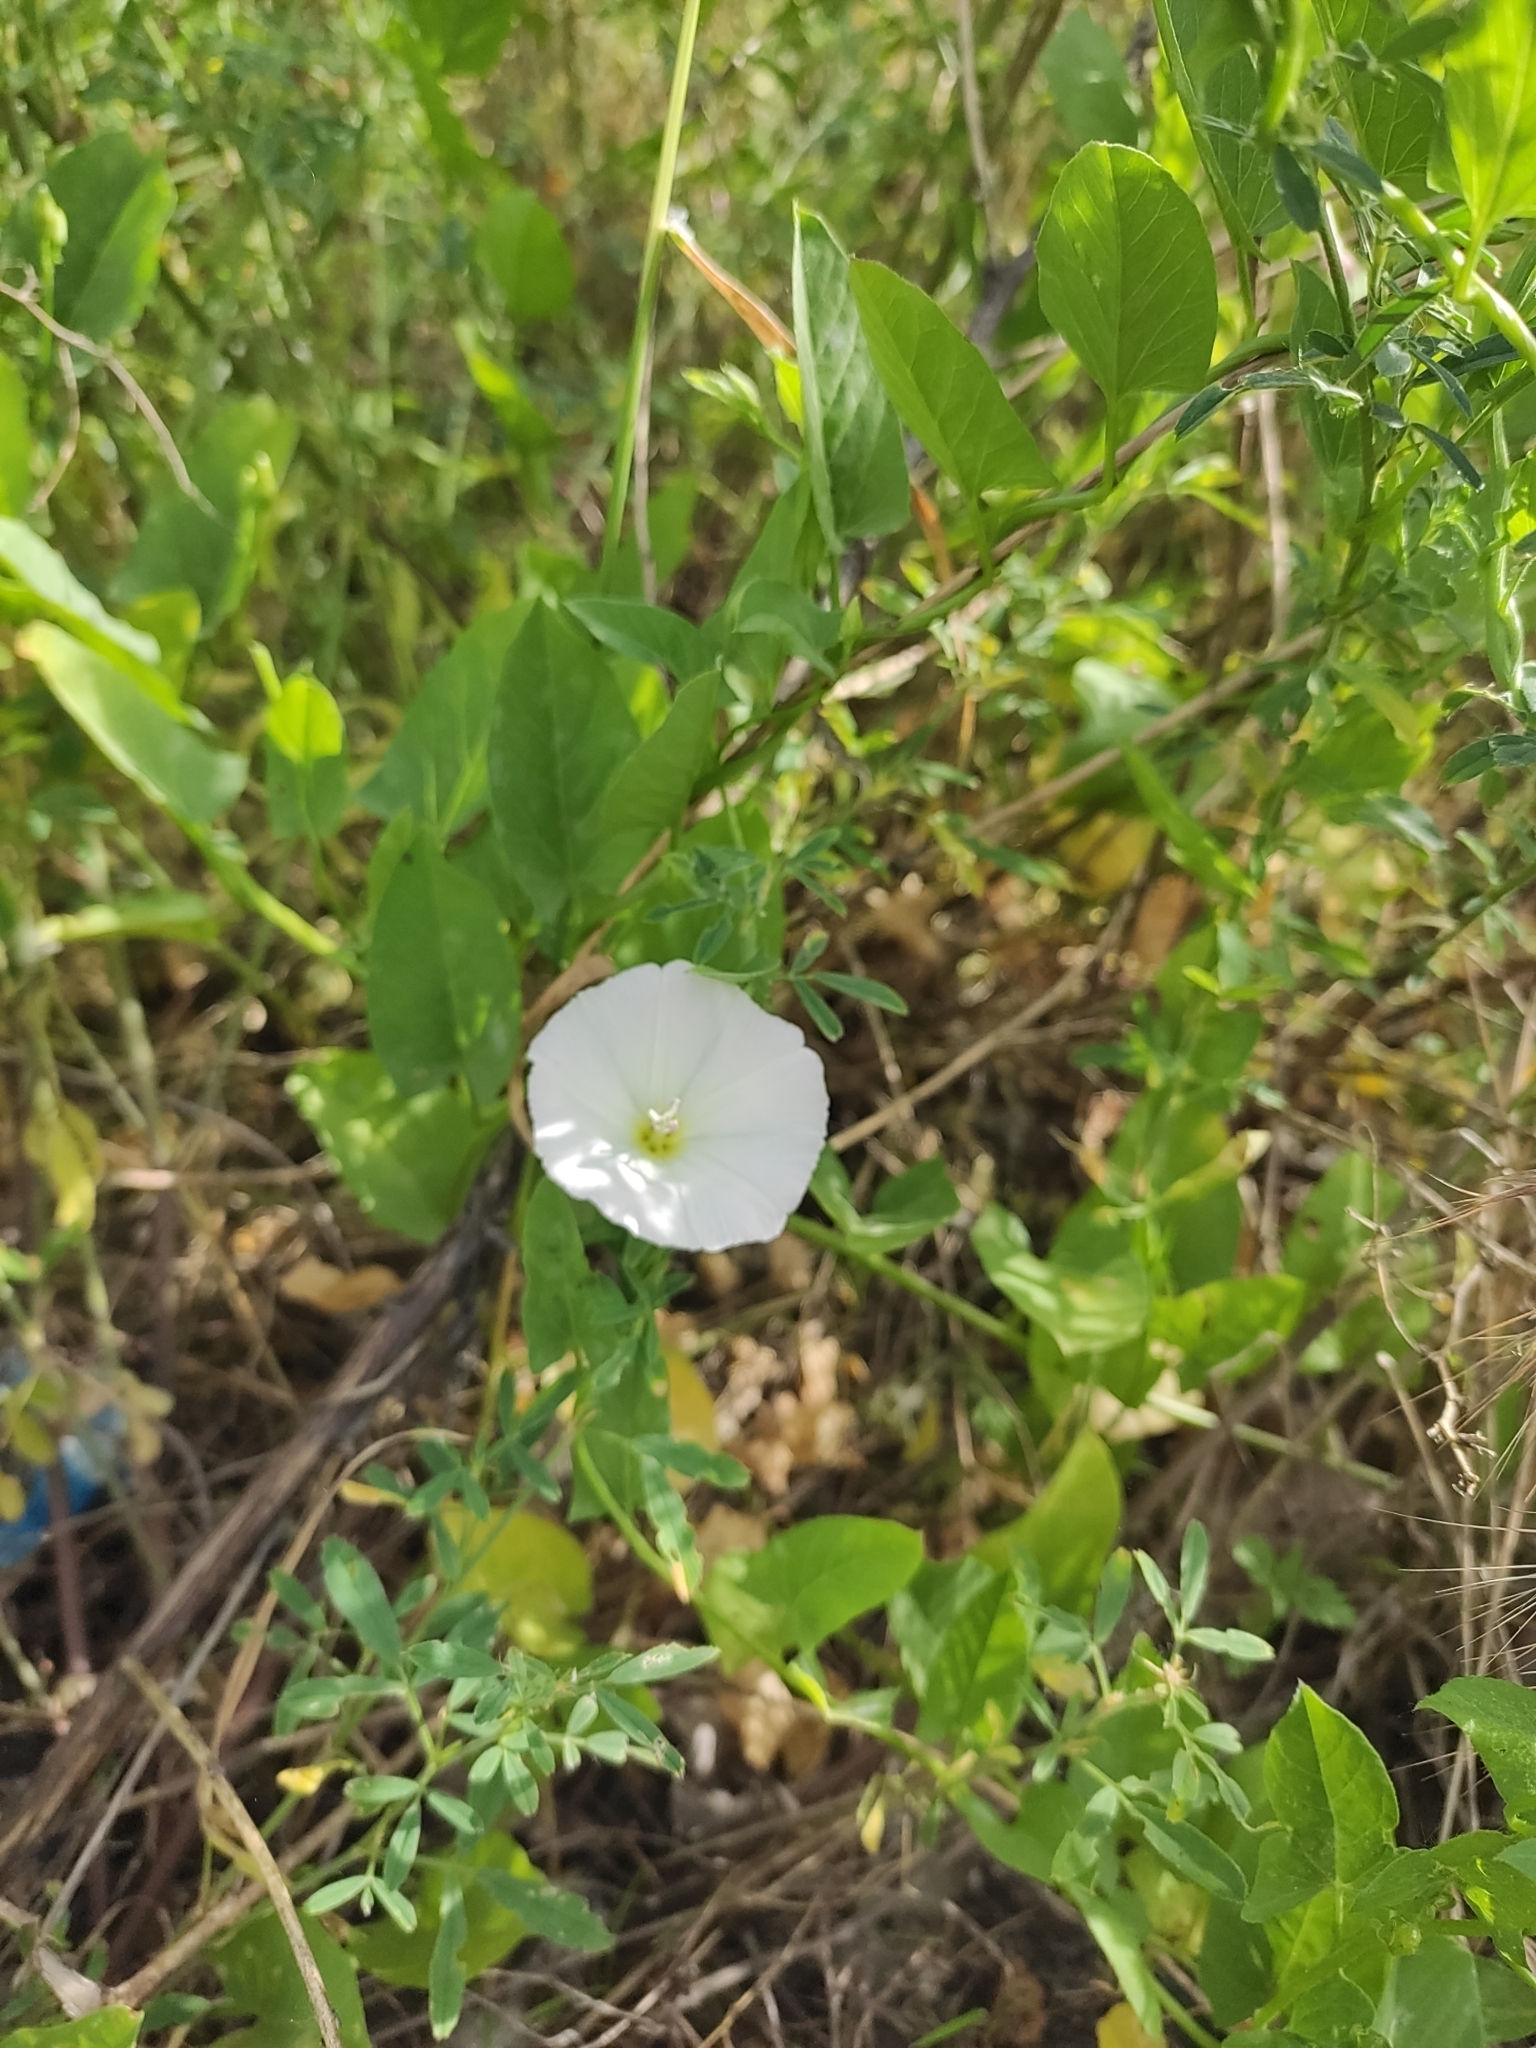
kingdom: Plantae
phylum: Tracheophyta
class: Magnoliopsida
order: Solanales
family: Convolvulaceae
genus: Convolvulus
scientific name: Convolvulus arvensis
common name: Field bindweed
